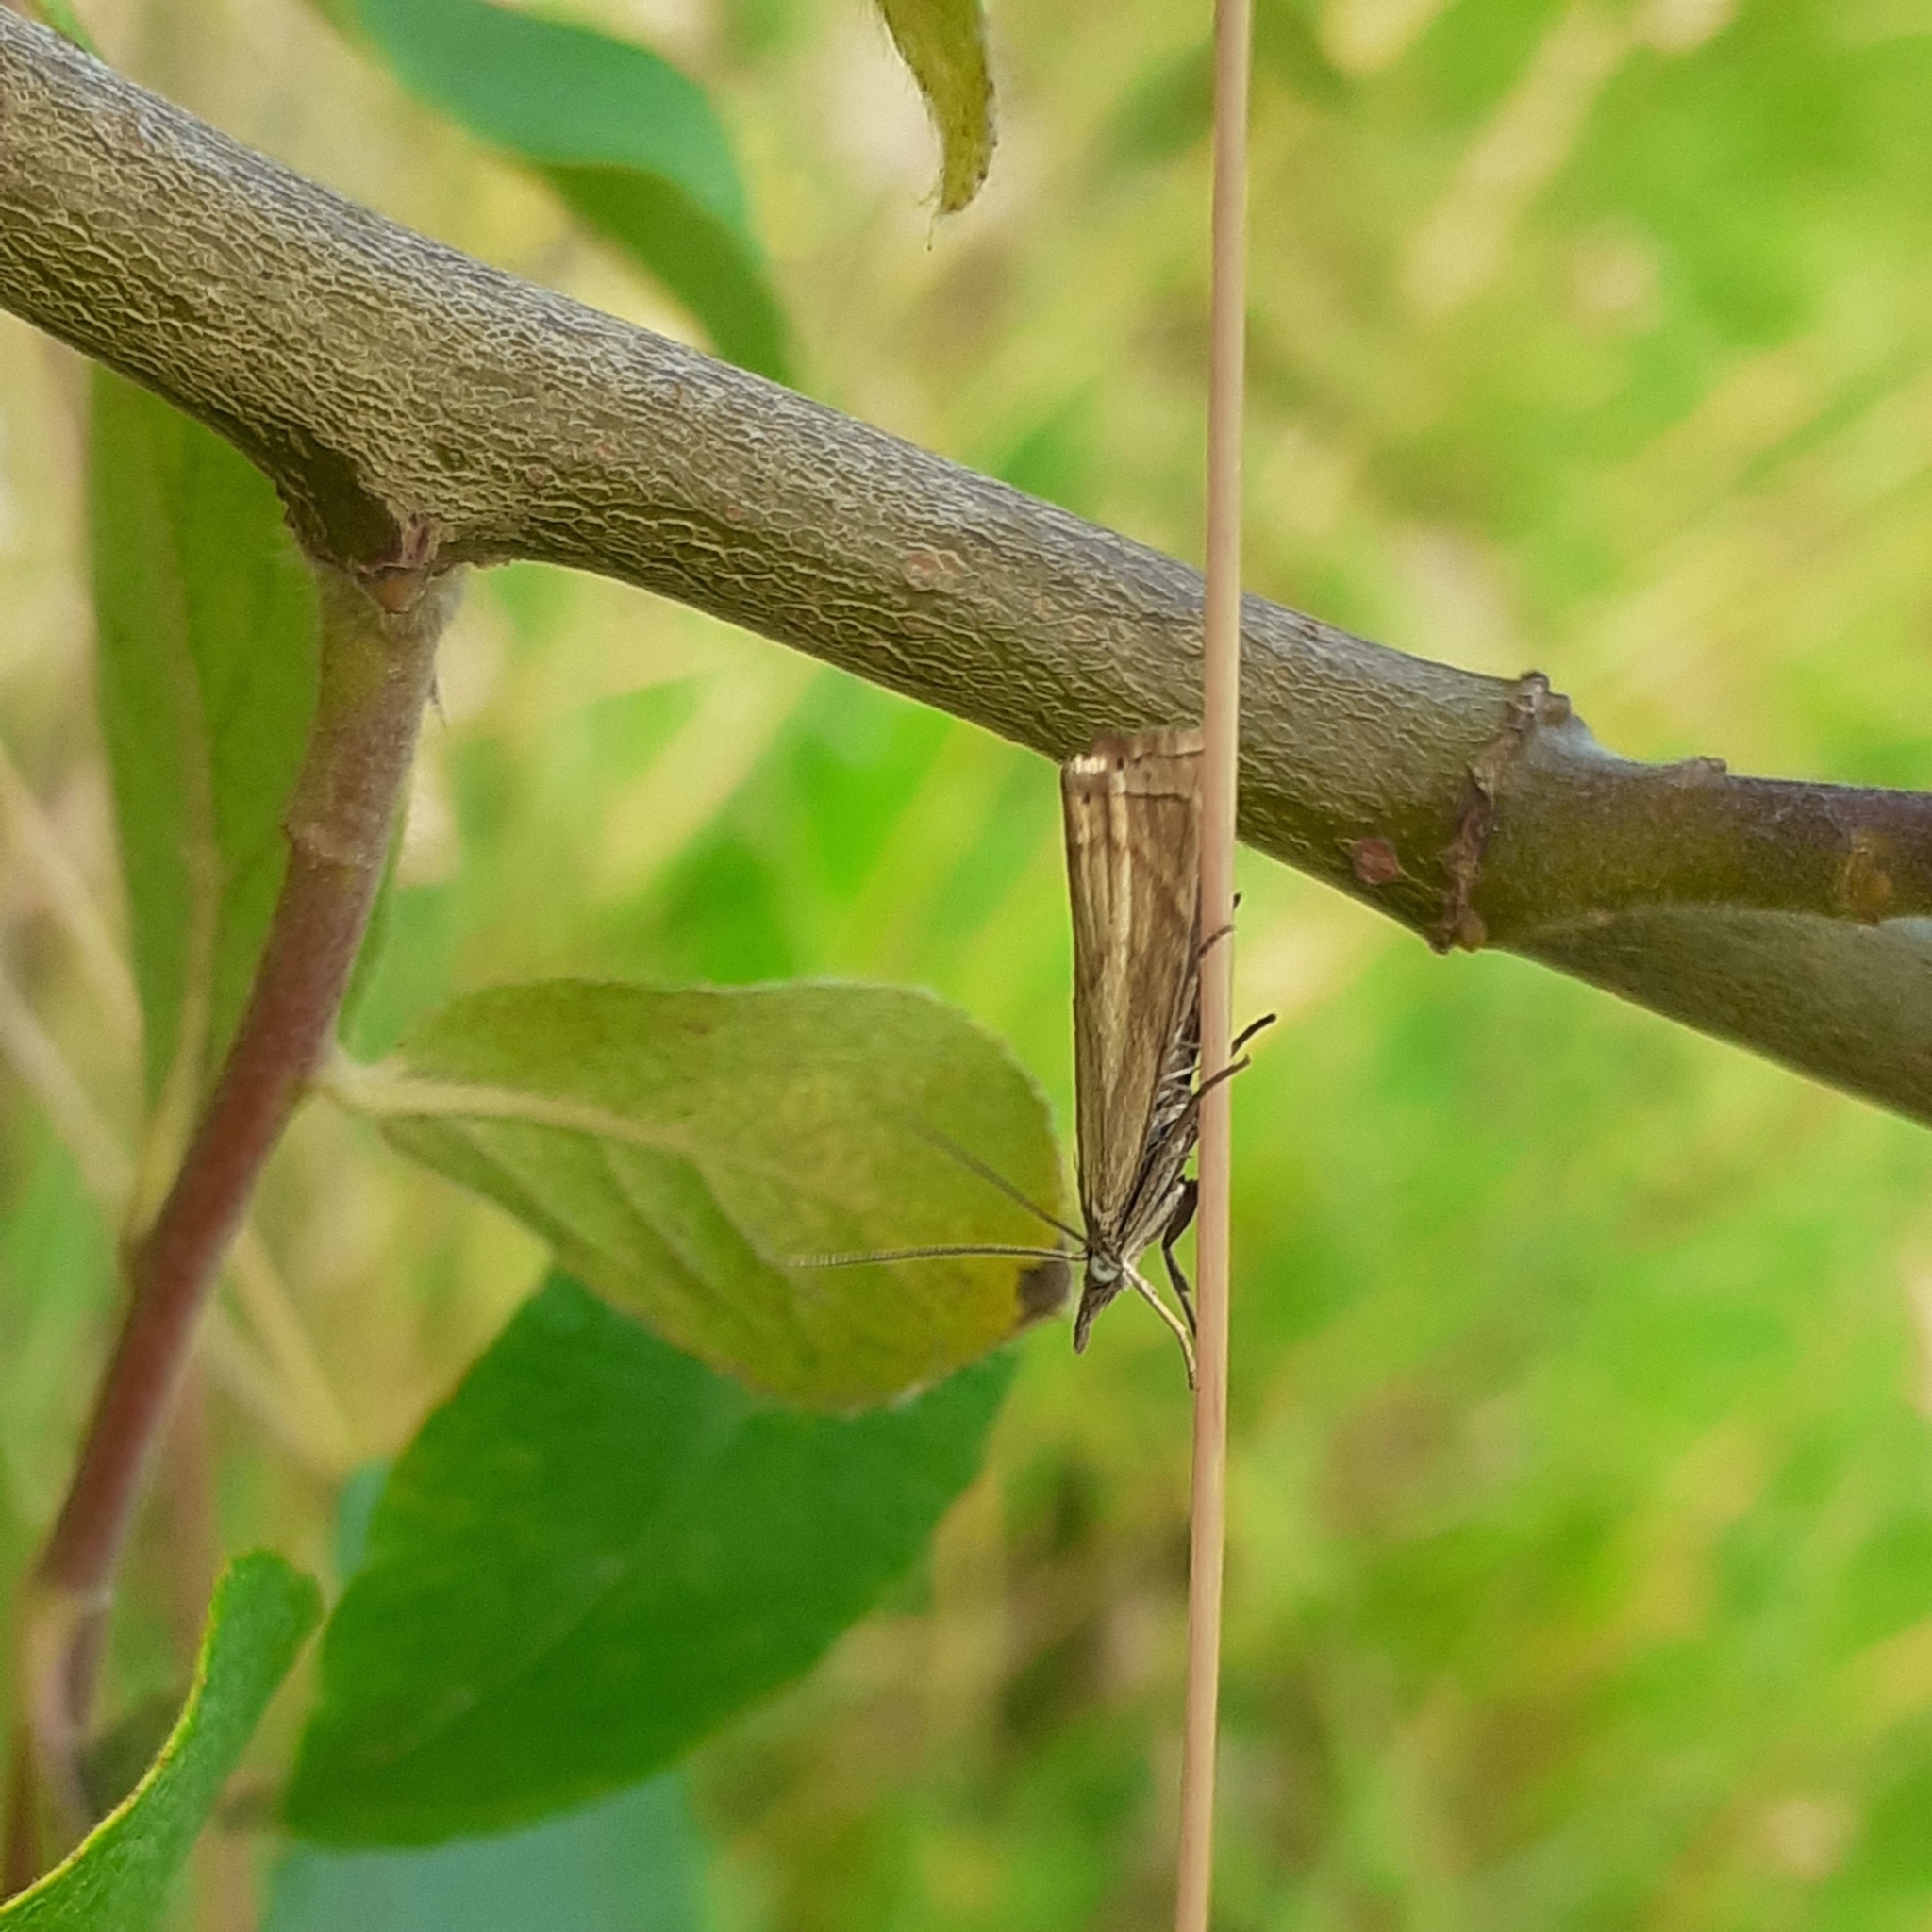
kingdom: Animalia
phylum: Arthropoda
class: Insecta
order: Lepidoptera
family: Crambidae
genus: Chrysoteuchia
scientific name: Chrysoteuchia culmella
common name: Garden grass-veneer
